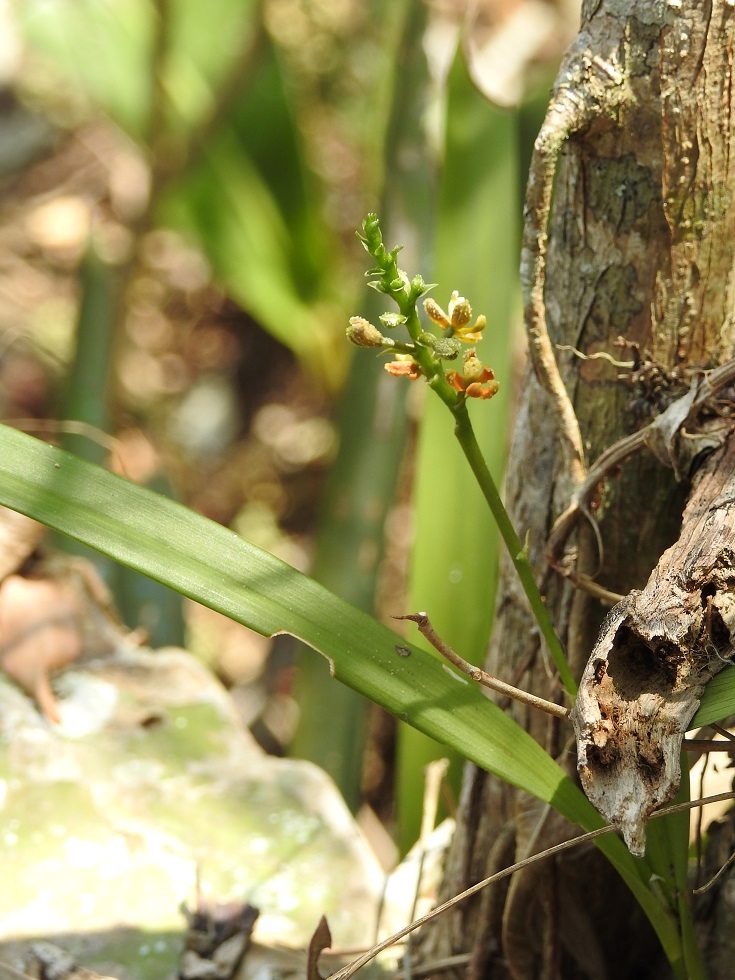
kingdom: Plantae
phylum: Tracheophyta
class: Liliopsida
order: Asparagales
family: Orchidaceae
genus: Prosthechea
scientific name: Prosthechea guttata
